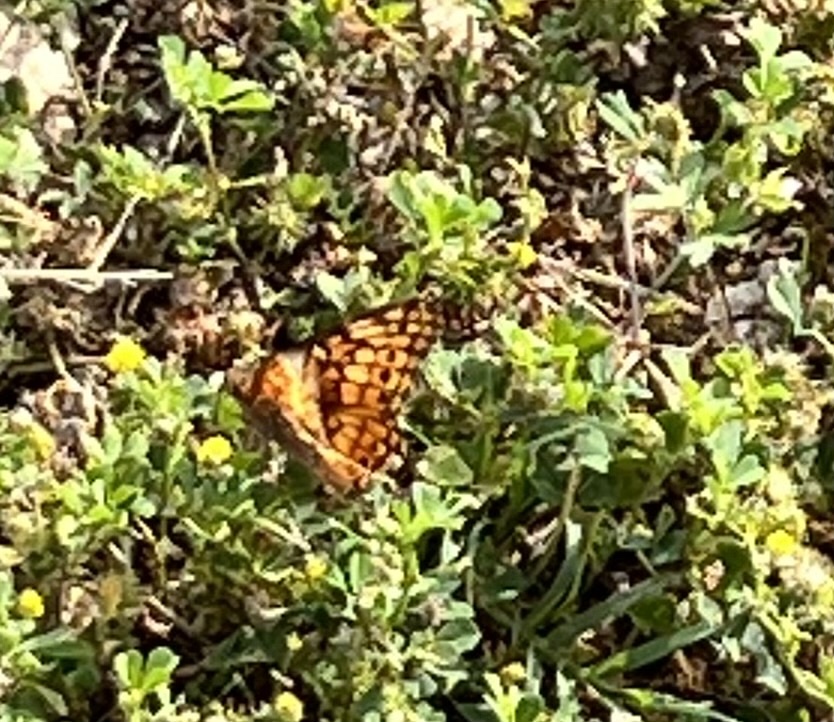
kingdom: Animalia
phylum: Arthropoda
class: Insecta
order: Lepidoptera
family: Nymphalidae
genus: Euptoieta
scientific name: Euptoieta claudia
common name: Variegated fritillary
